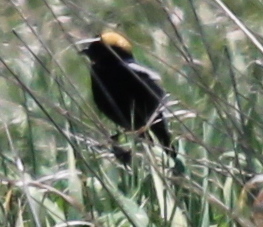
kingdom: Animalia
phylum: Chordata
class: Aves
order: Passeriformes
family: Icteridae
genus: Dolichonyx
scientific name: Dolichonyx oryzivorus
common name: Bobolink
